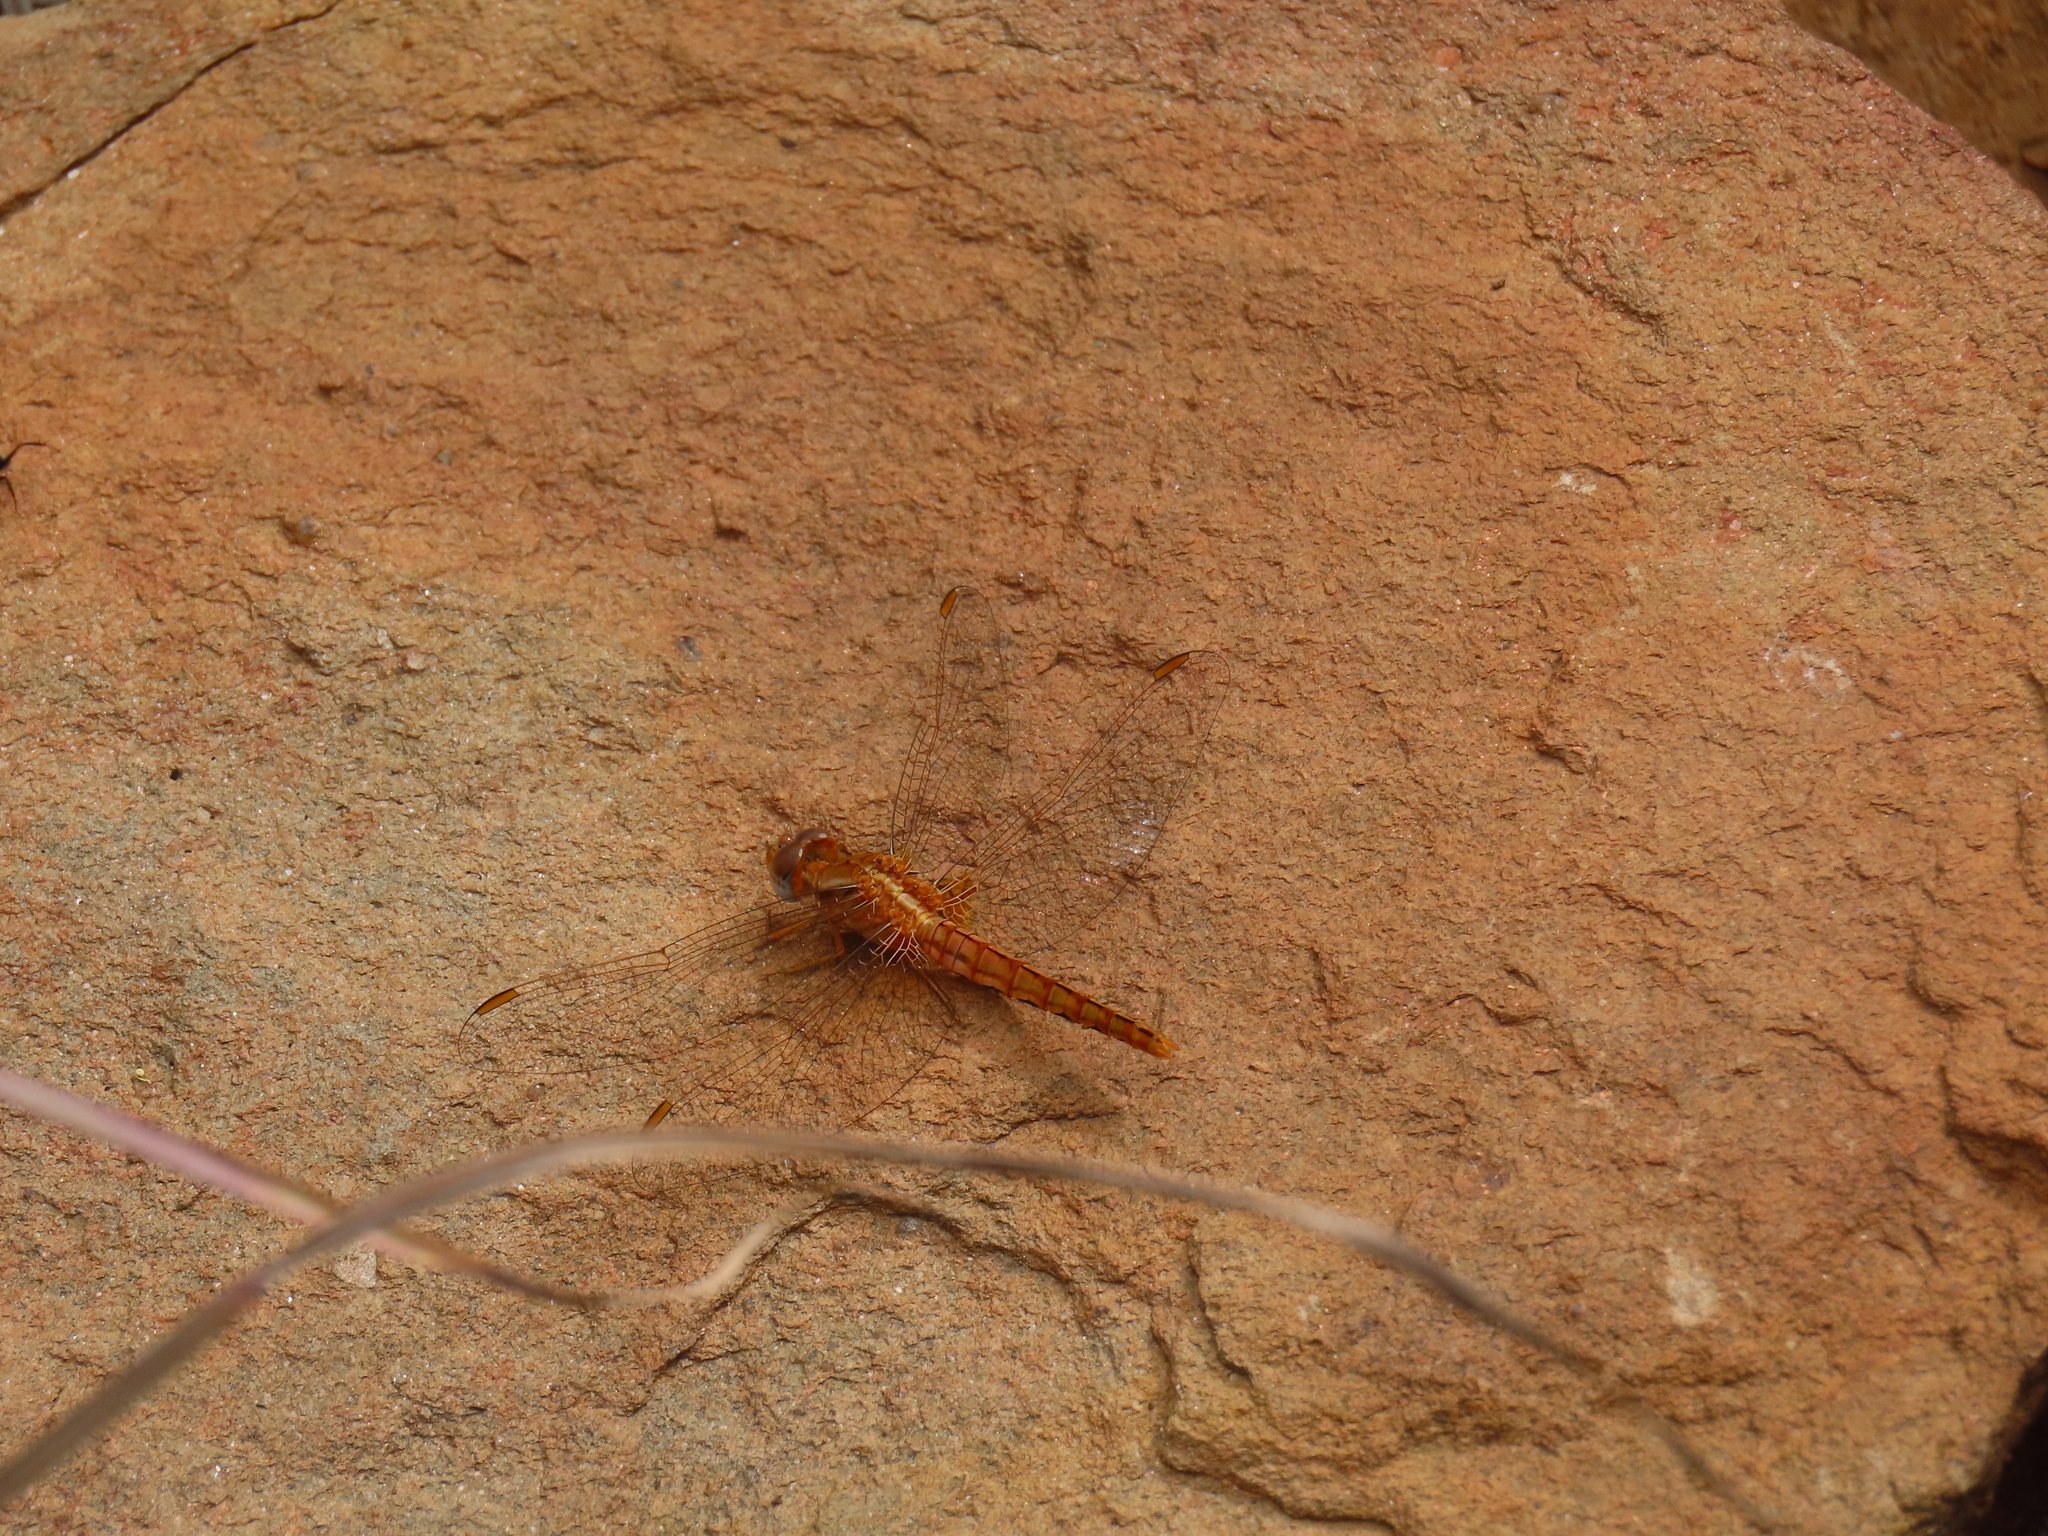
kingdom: Animalia
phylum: Arthropoda
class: Insecta
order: Odonata
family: Libellulidae
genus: Crocothemis
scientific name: Crocothemis sanguinolenta
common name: Little scarlet
